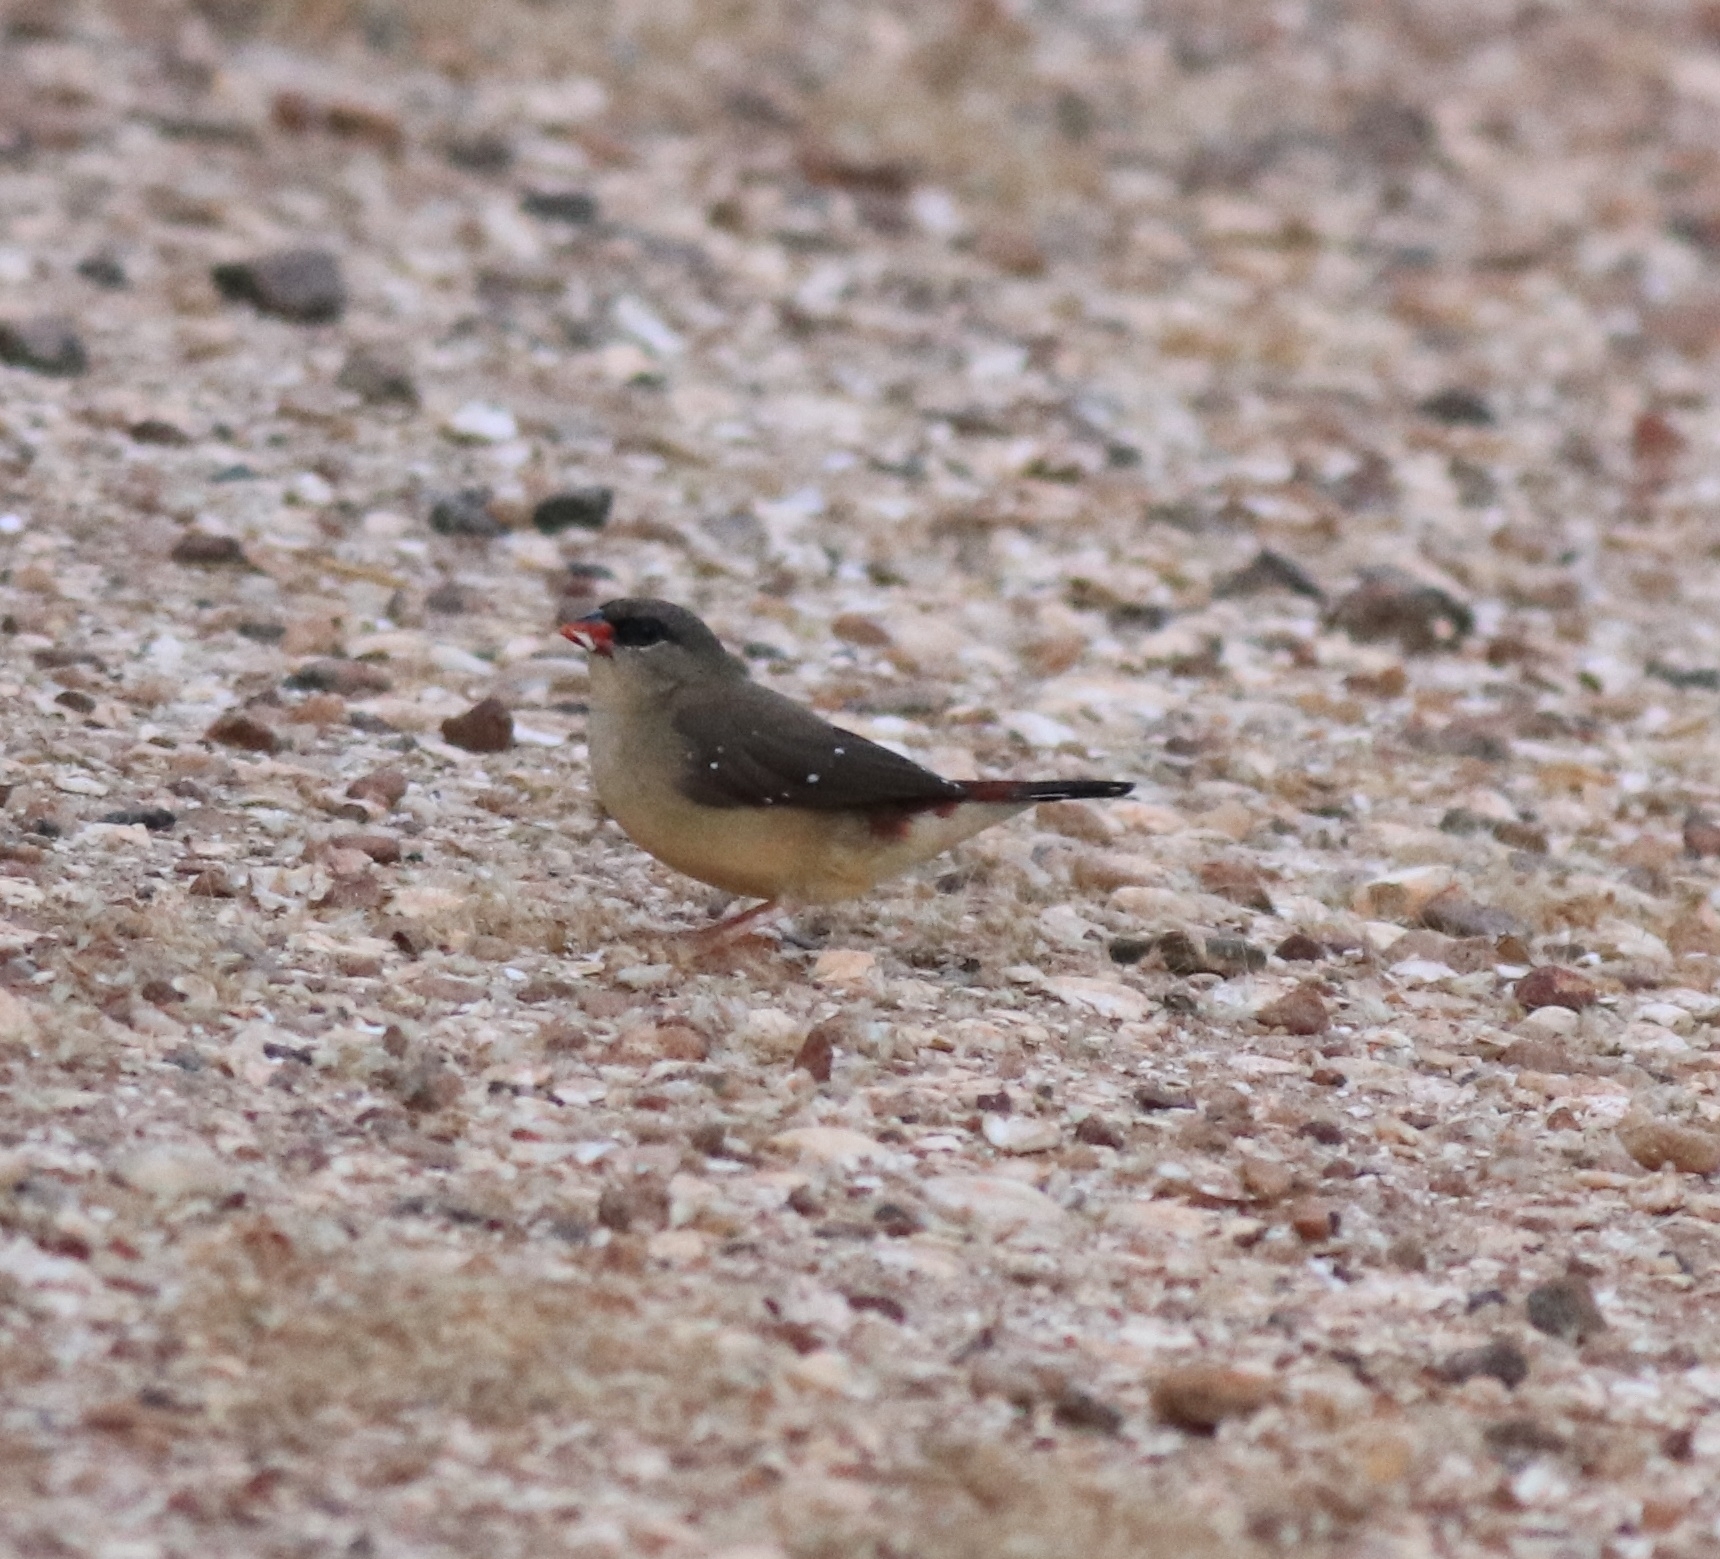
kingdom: Animalia
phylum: Chordata
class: Aves
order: Passeriformes
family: Estrildidae
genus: Amandava
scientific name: Amandava amandava
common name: Red avadavat
